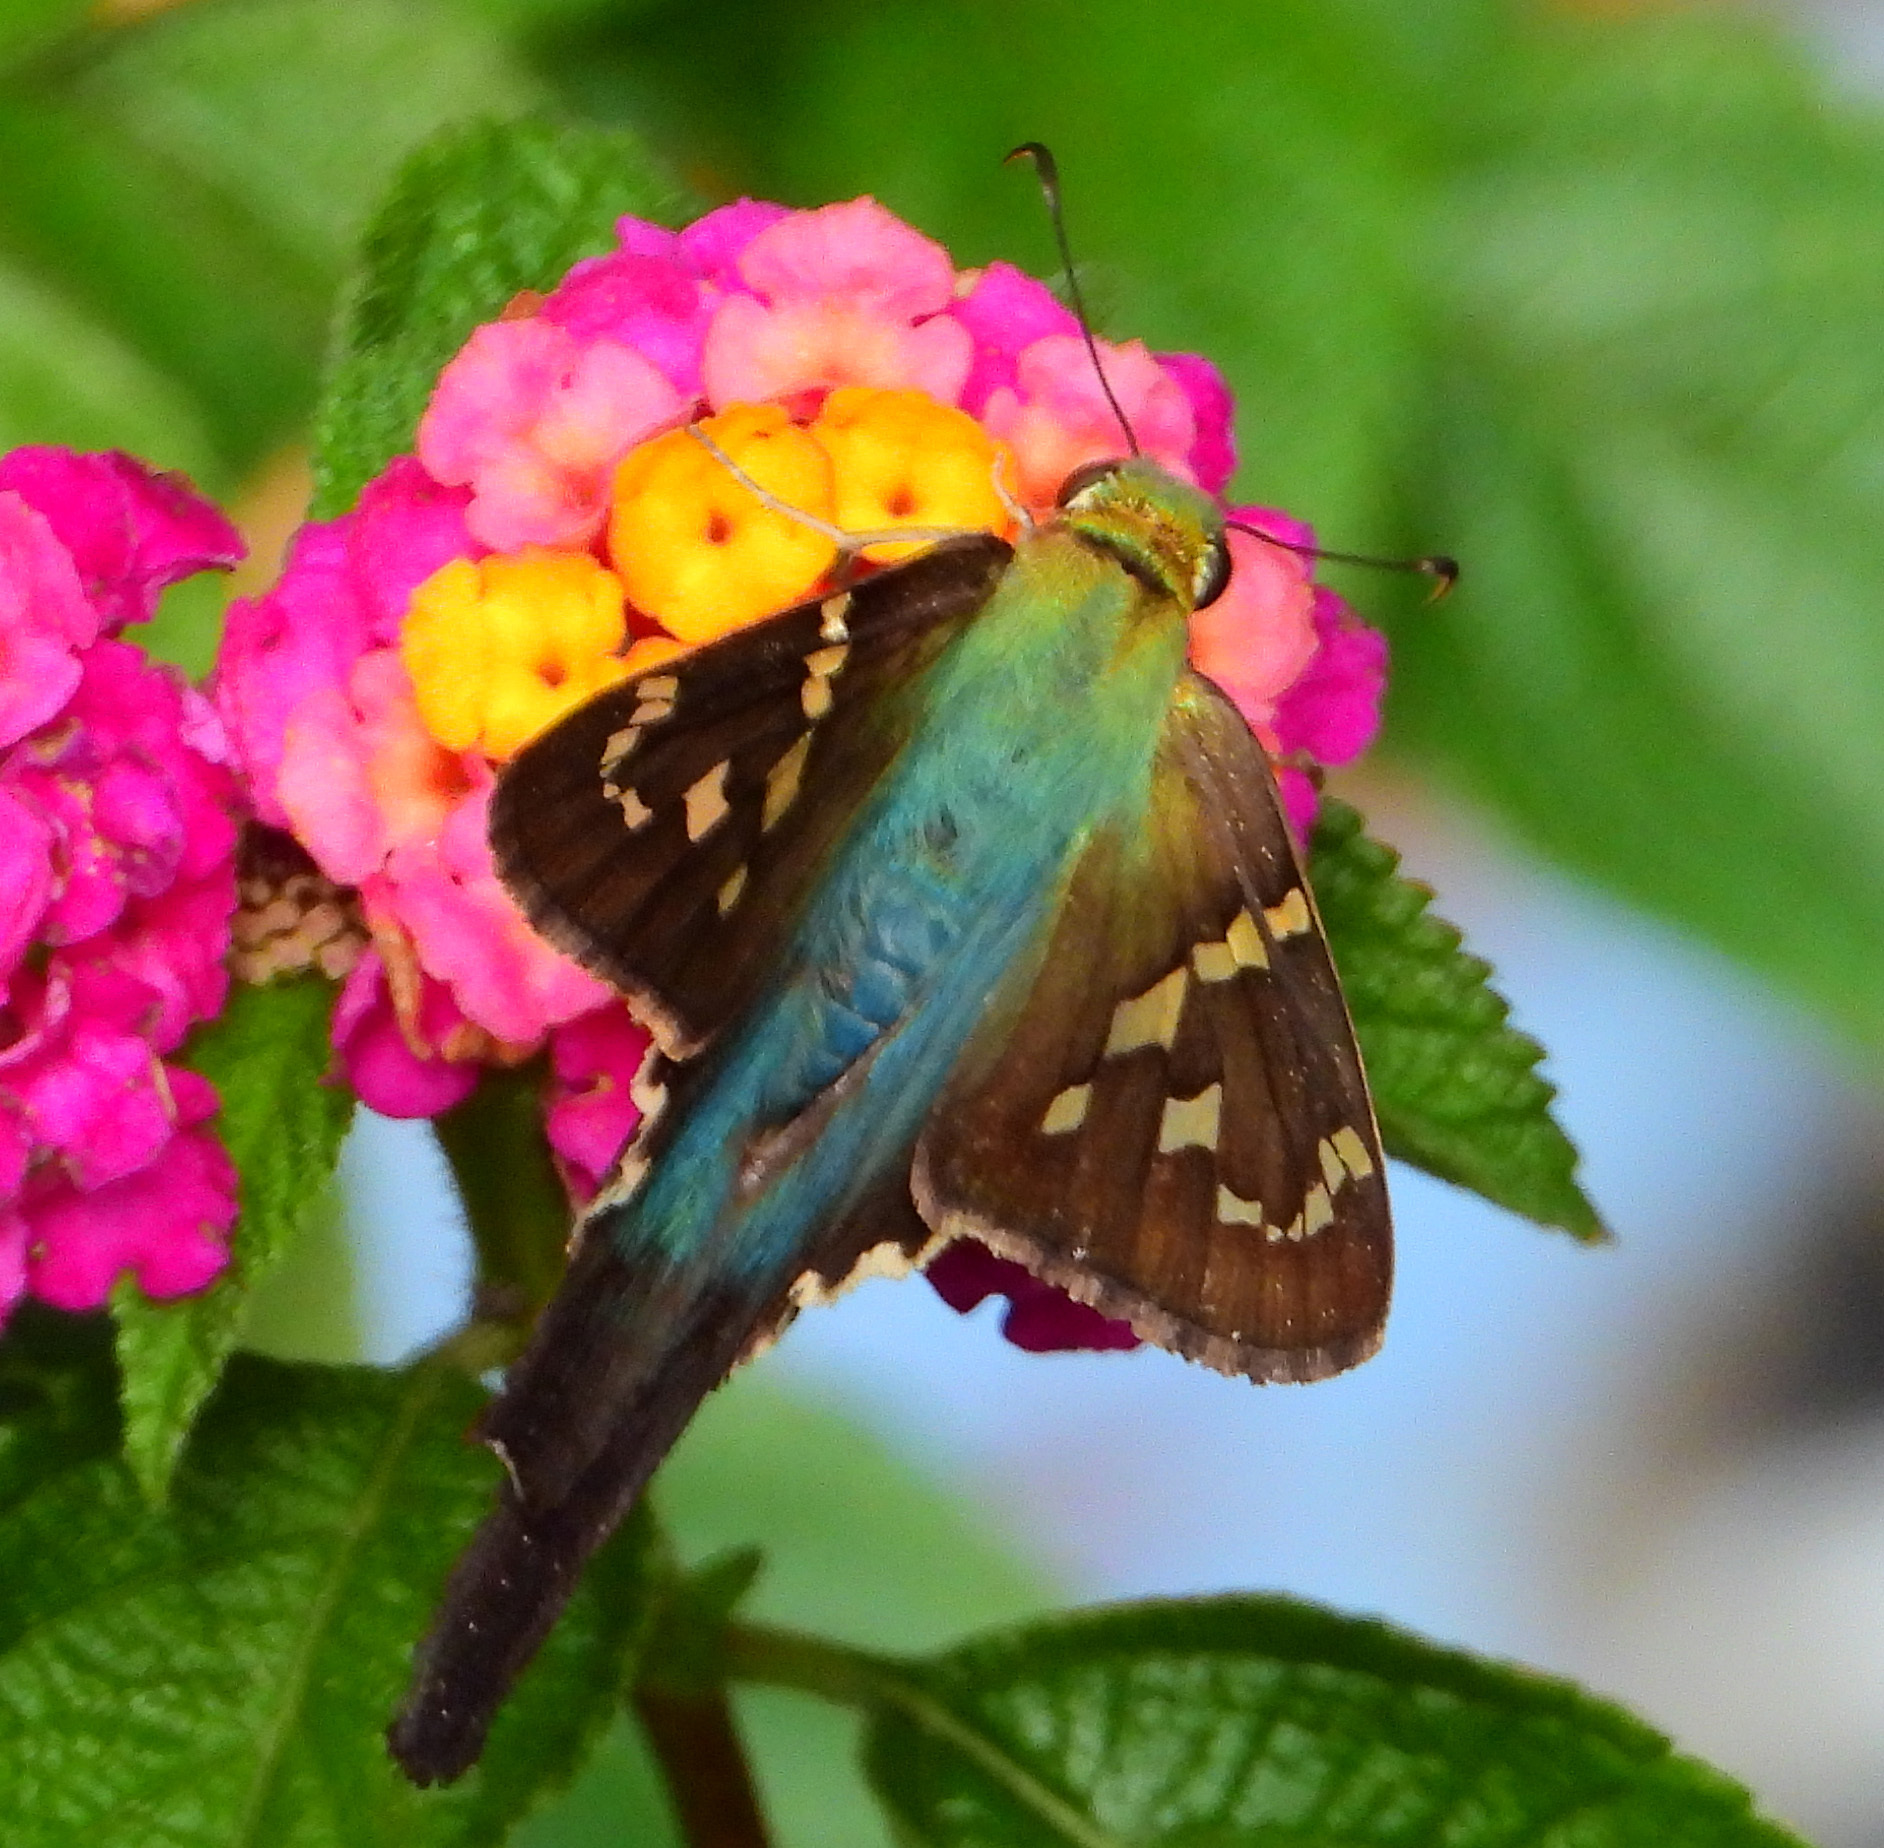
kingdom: Animalia
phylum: Arthropoda
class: Insecta
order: Lepidoptera
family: Hesperiidae
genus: Urbanus
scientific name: Urbanus proteus
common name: Long-tailed skipper
